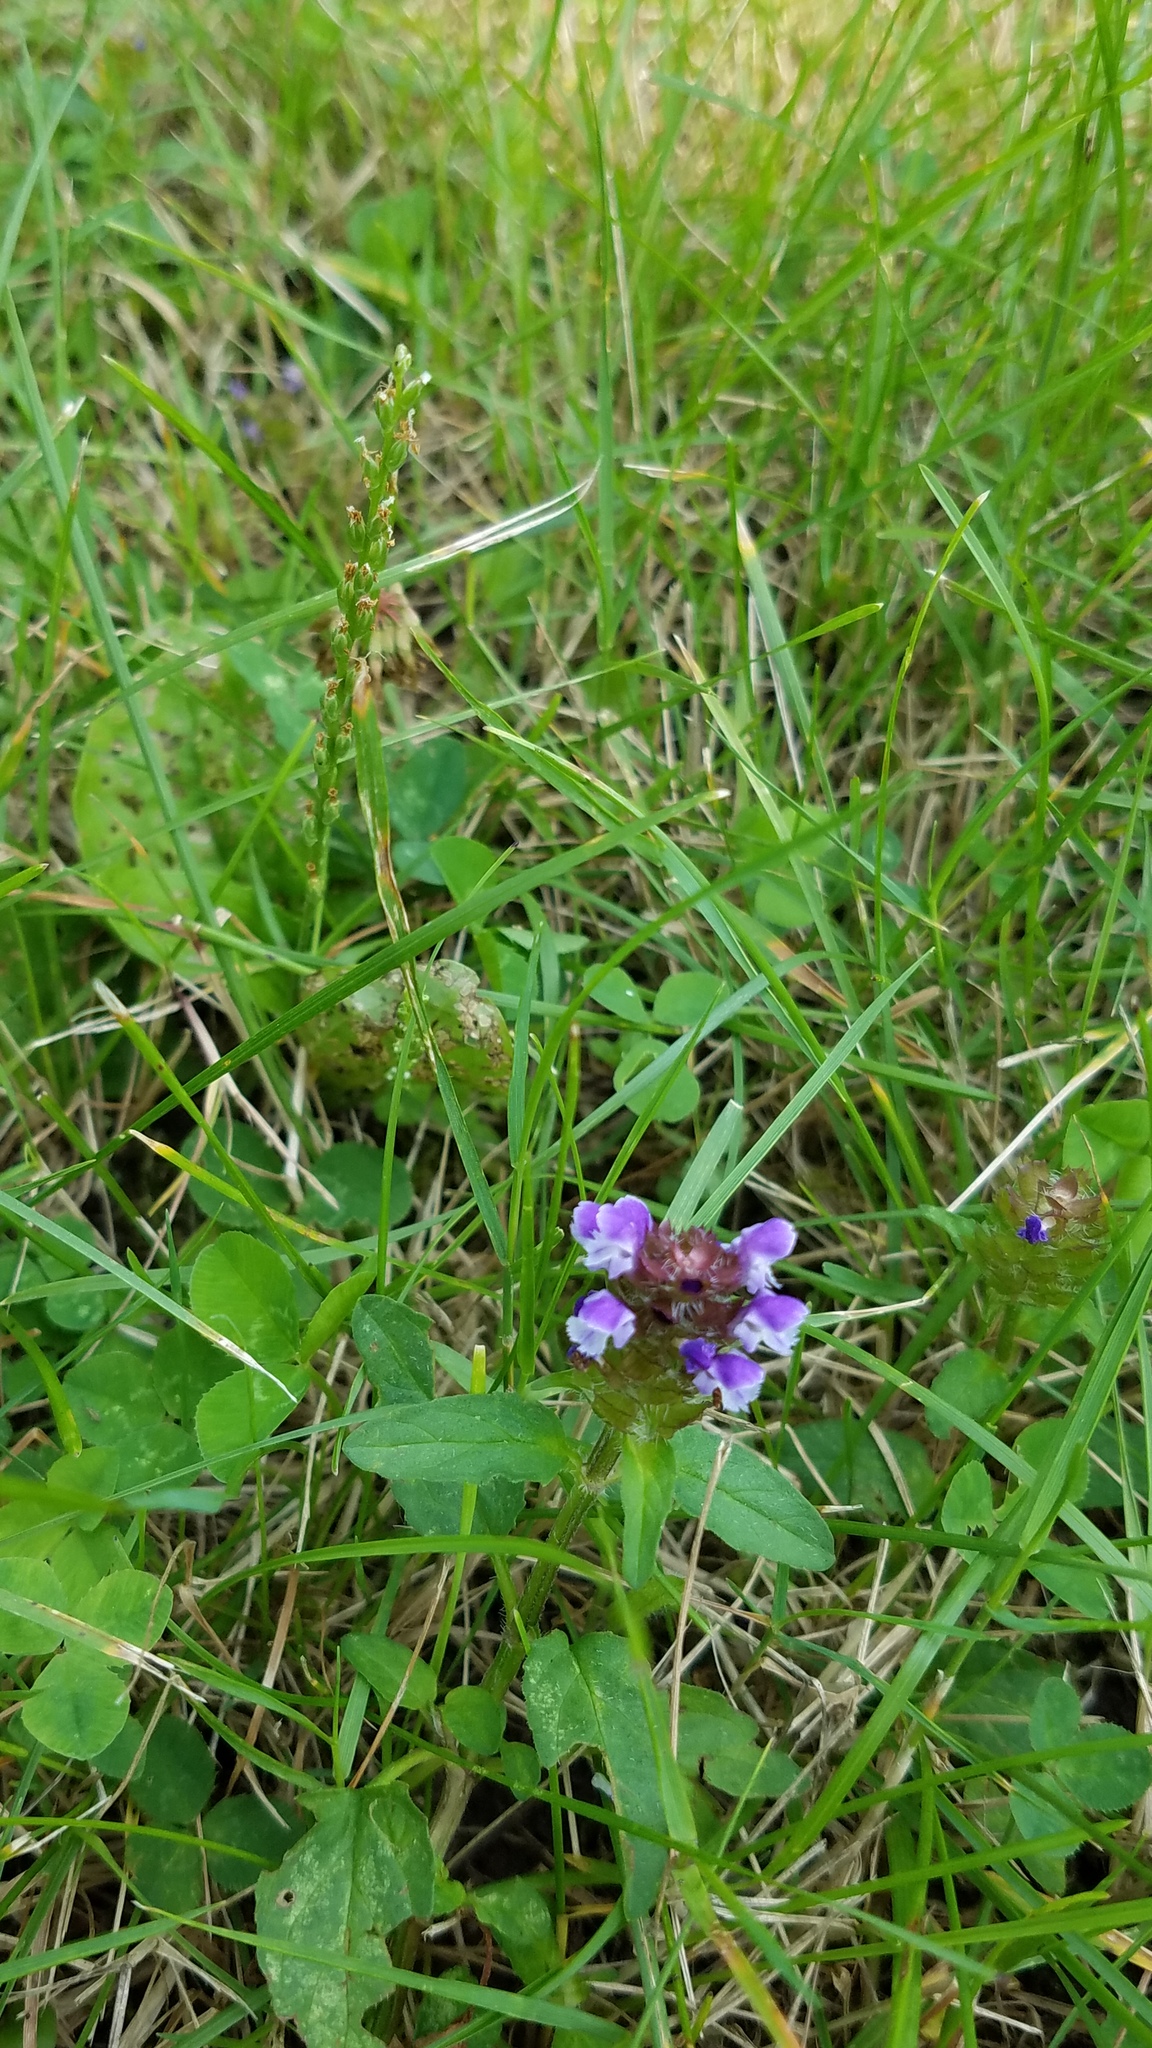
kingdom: Plantae
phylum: Tracheophyta
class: Magnoliopsida
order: Lamiales
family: Lamiaceae
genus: Prunella
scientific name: Prunella vulgaris
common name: Heal-all
